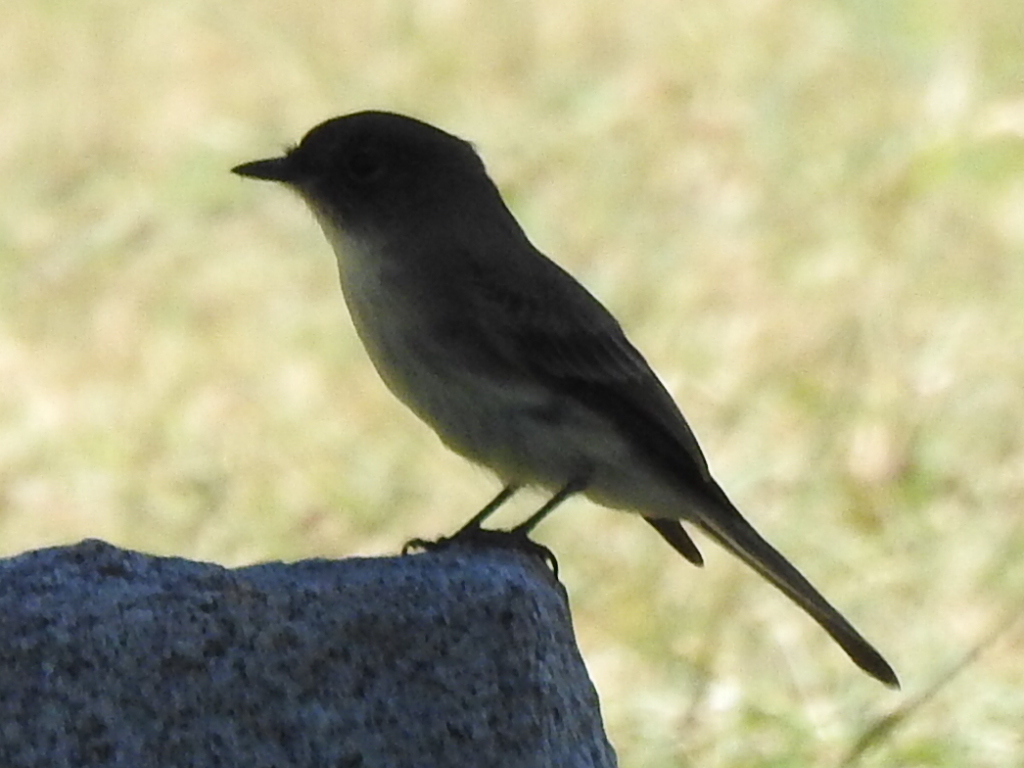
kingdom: Animalia
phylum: Chordata
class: Aves
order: Passeriformes
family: Tyrannidae
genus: Sayornis
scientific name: Sayornis phoebe
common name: Eastern phoebe
